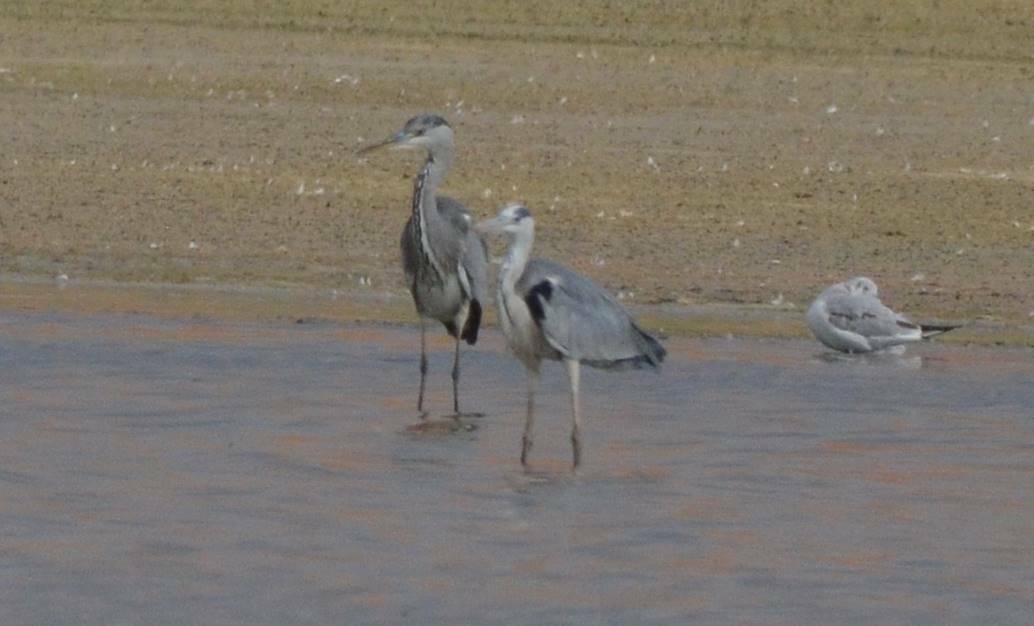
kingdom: Animalia
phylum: Chordata
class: Aves
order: Pelecaniformes
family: Ardeidae
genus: Ardea
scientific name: Ardea cinerea
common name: Grey heron
